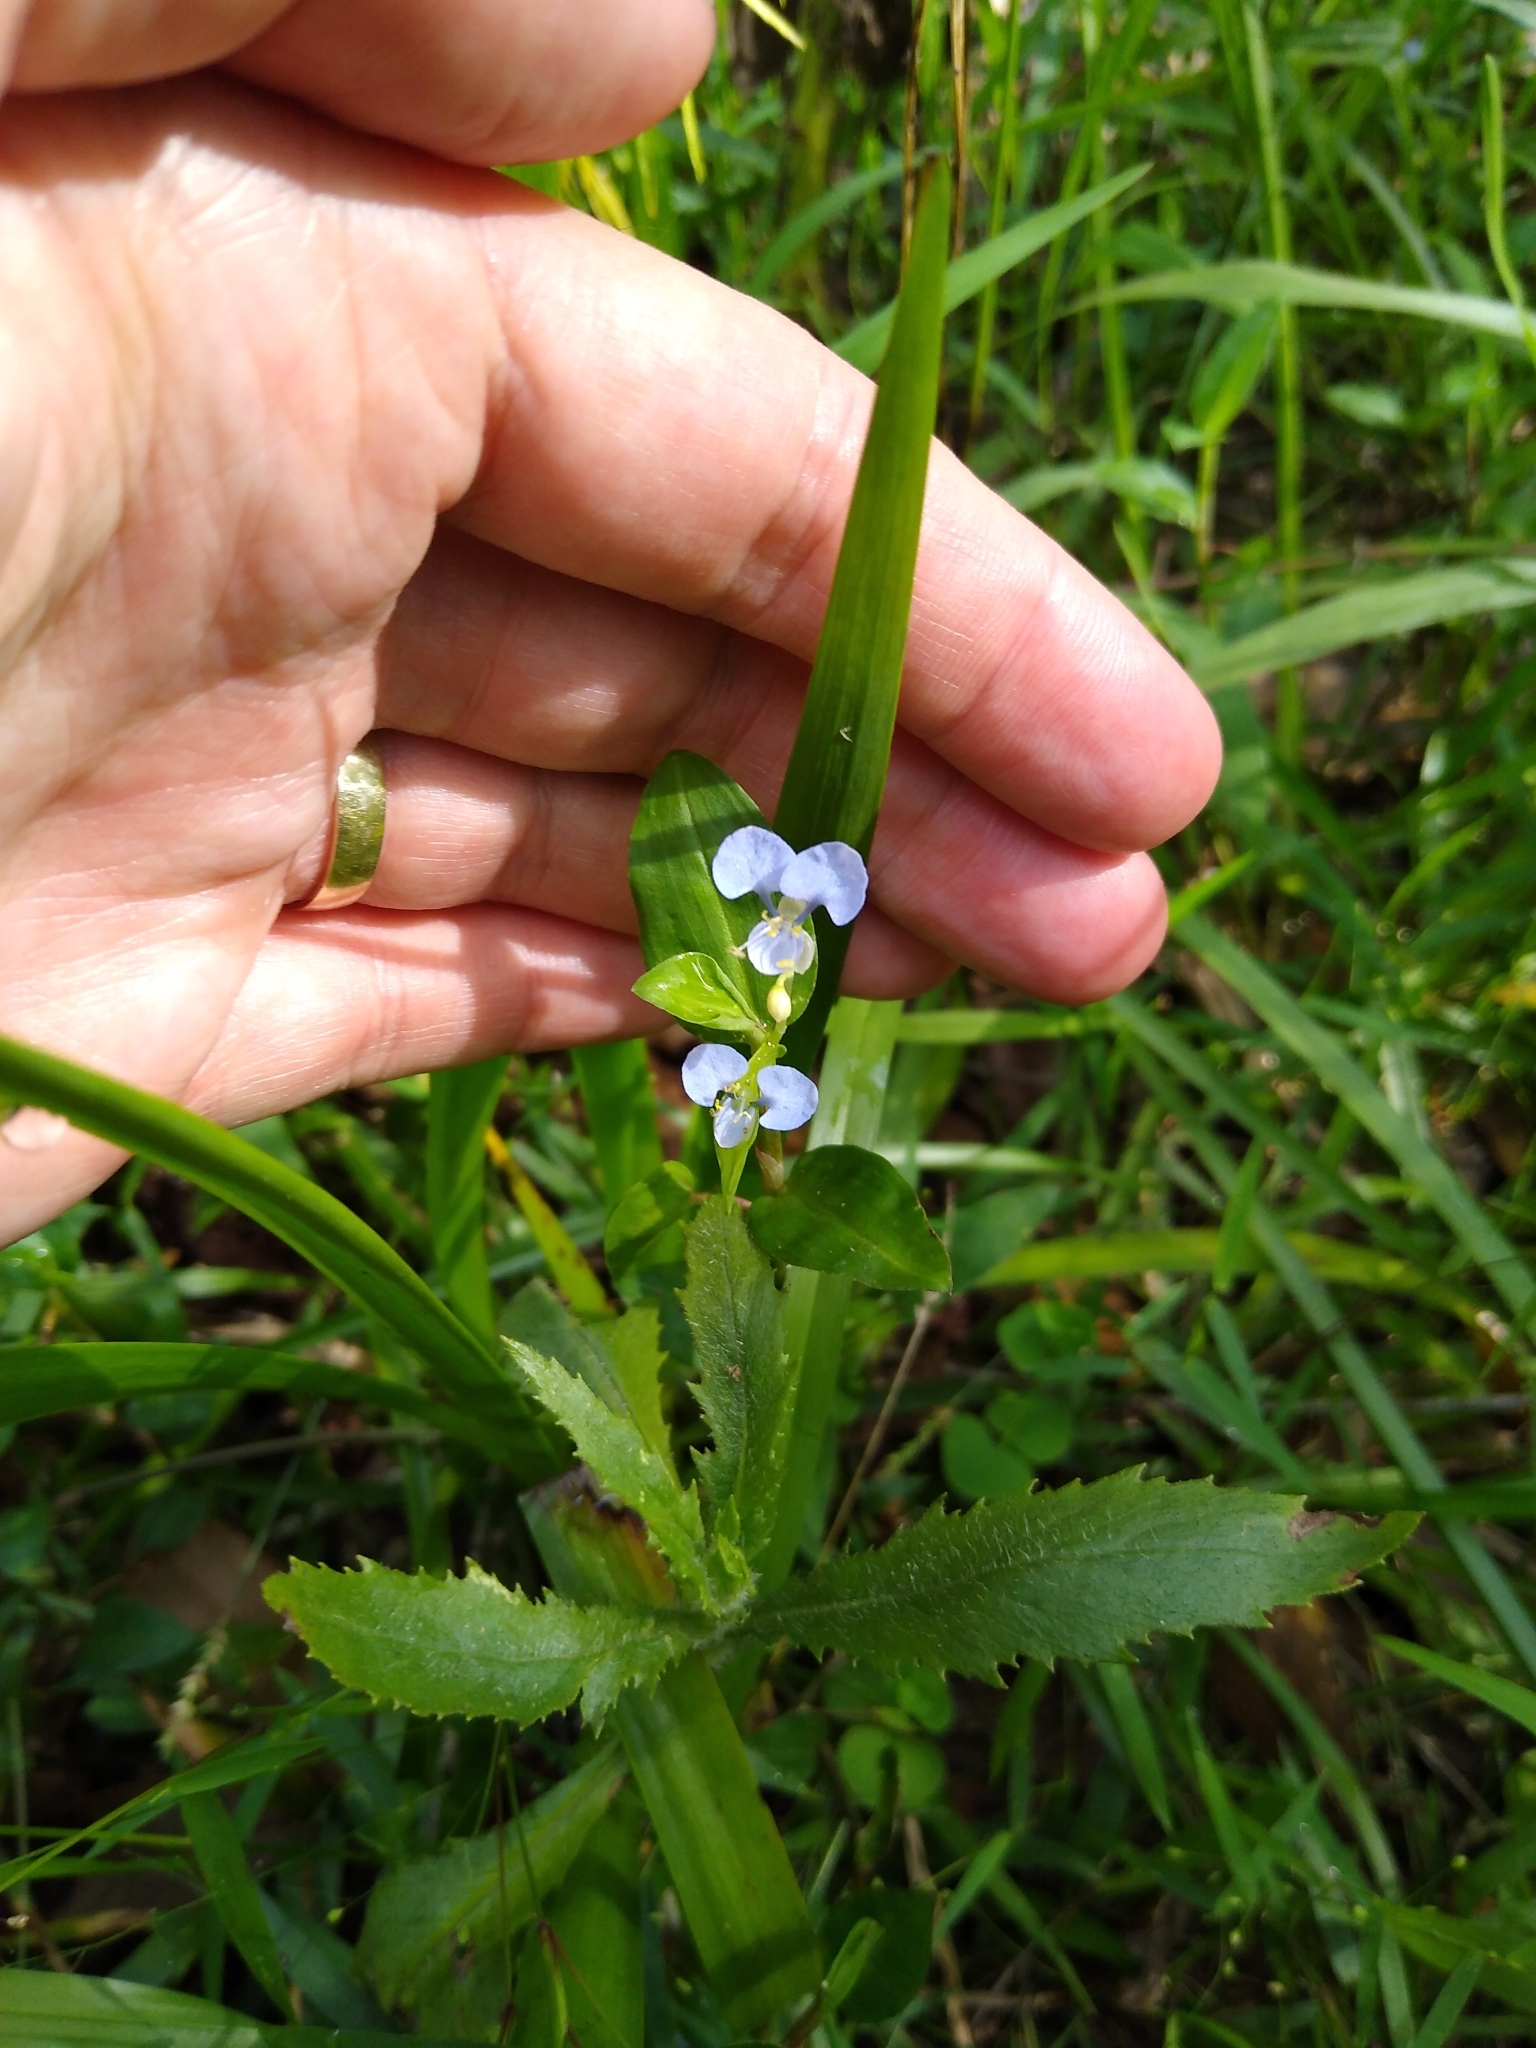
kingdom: Plantae
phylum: Tracheophyta
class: Liliopsida
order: Commelinales
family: Commelinaceae
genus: Commelina
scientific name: Commelina diffusa
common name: Climbing dayflower
